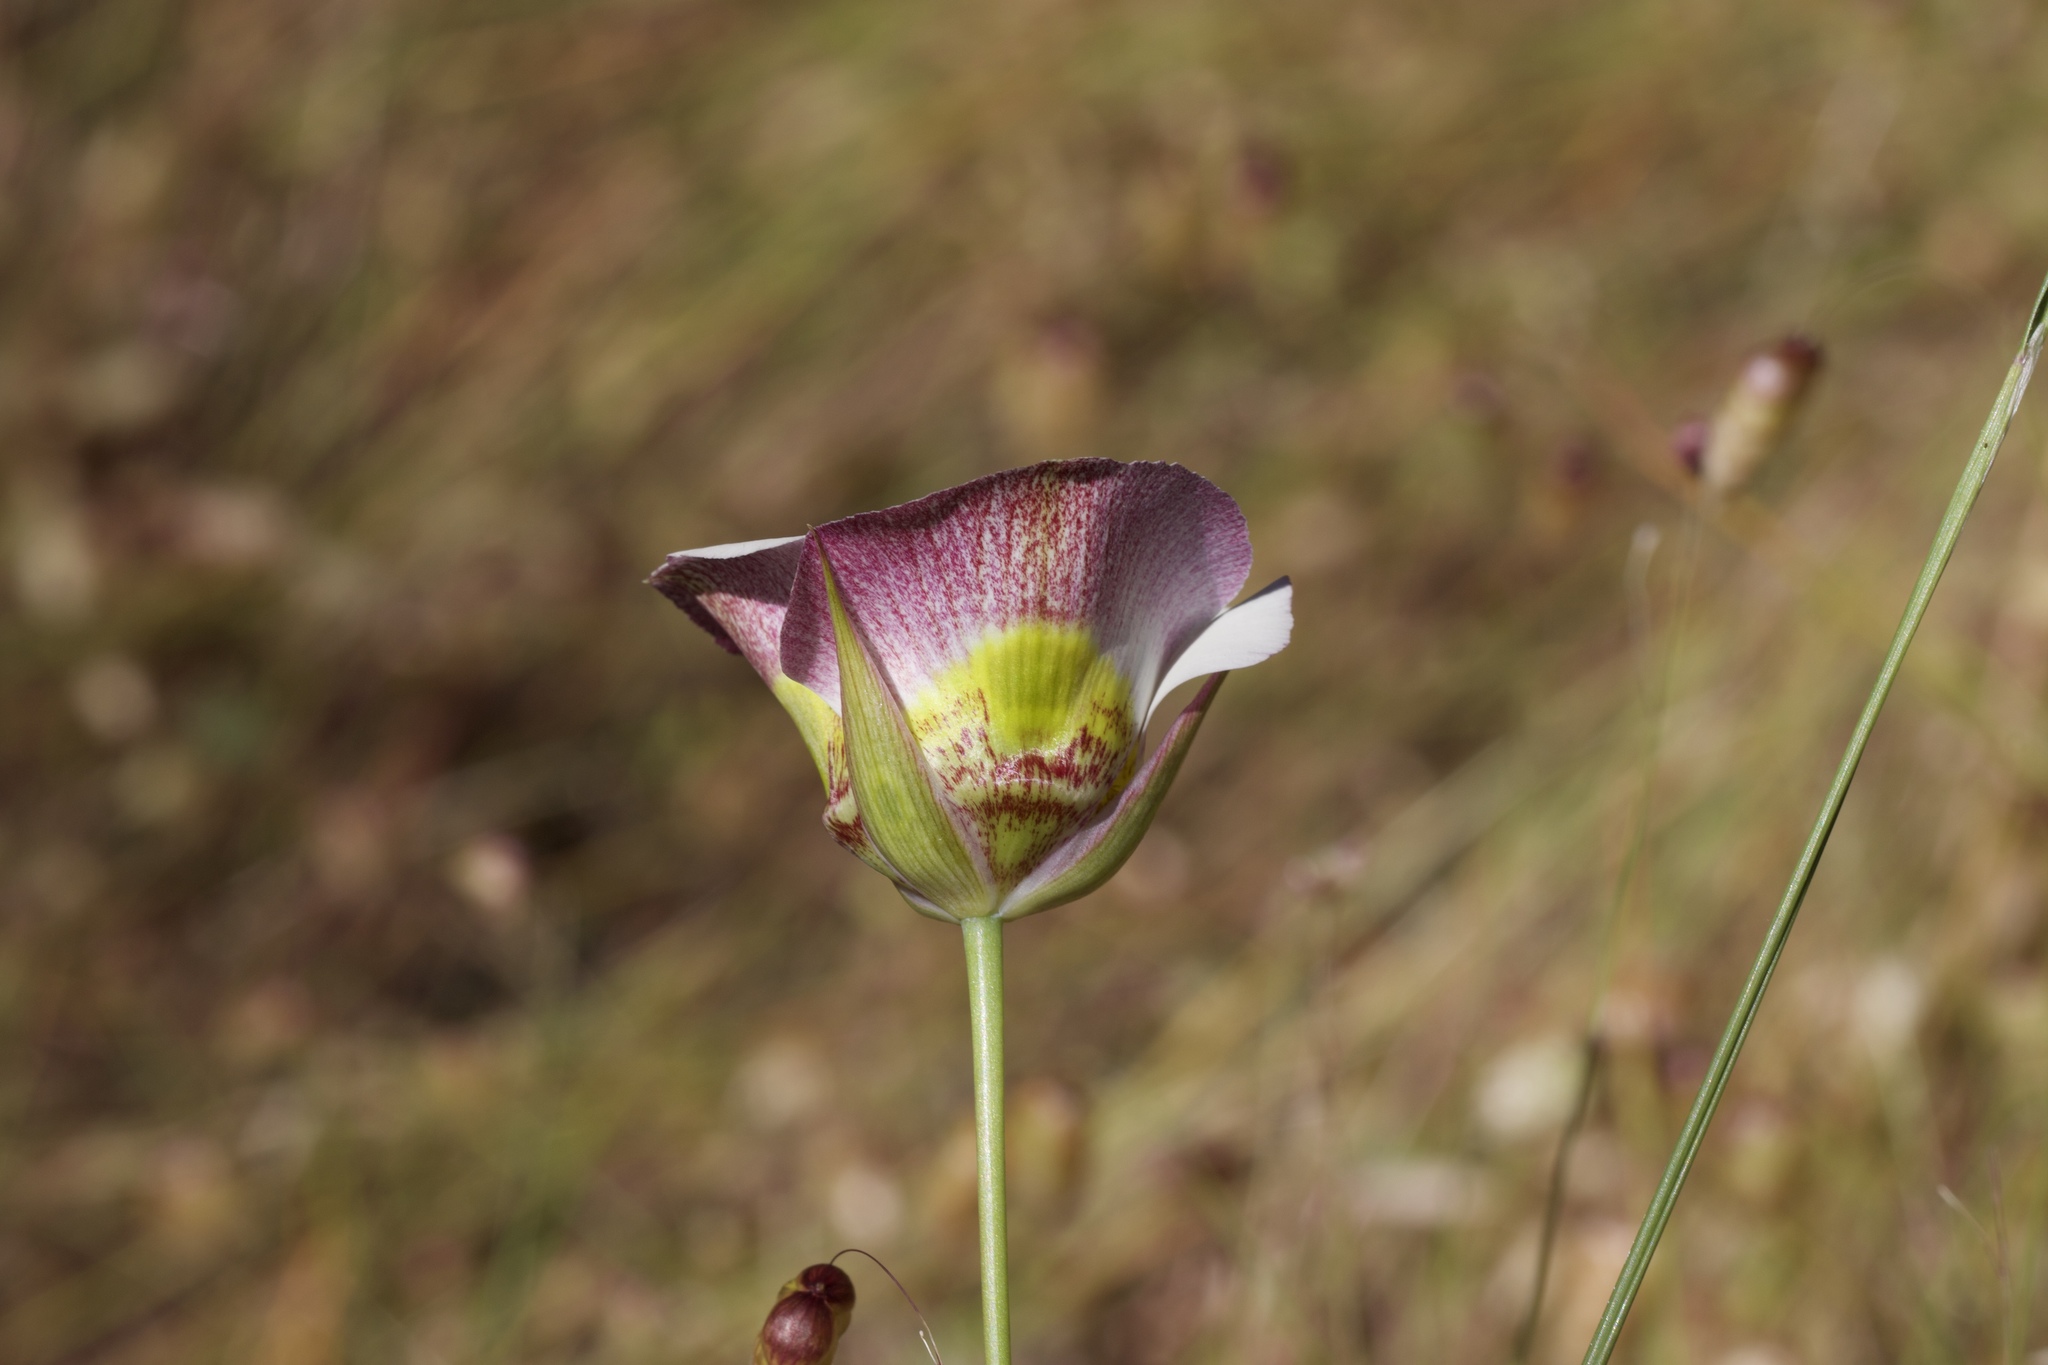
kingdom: Plantae
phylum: Tracheophyta
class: Liliopsida
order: Liliales
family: Liliaceae
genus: Calochortus
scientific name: Calochortus superbus
